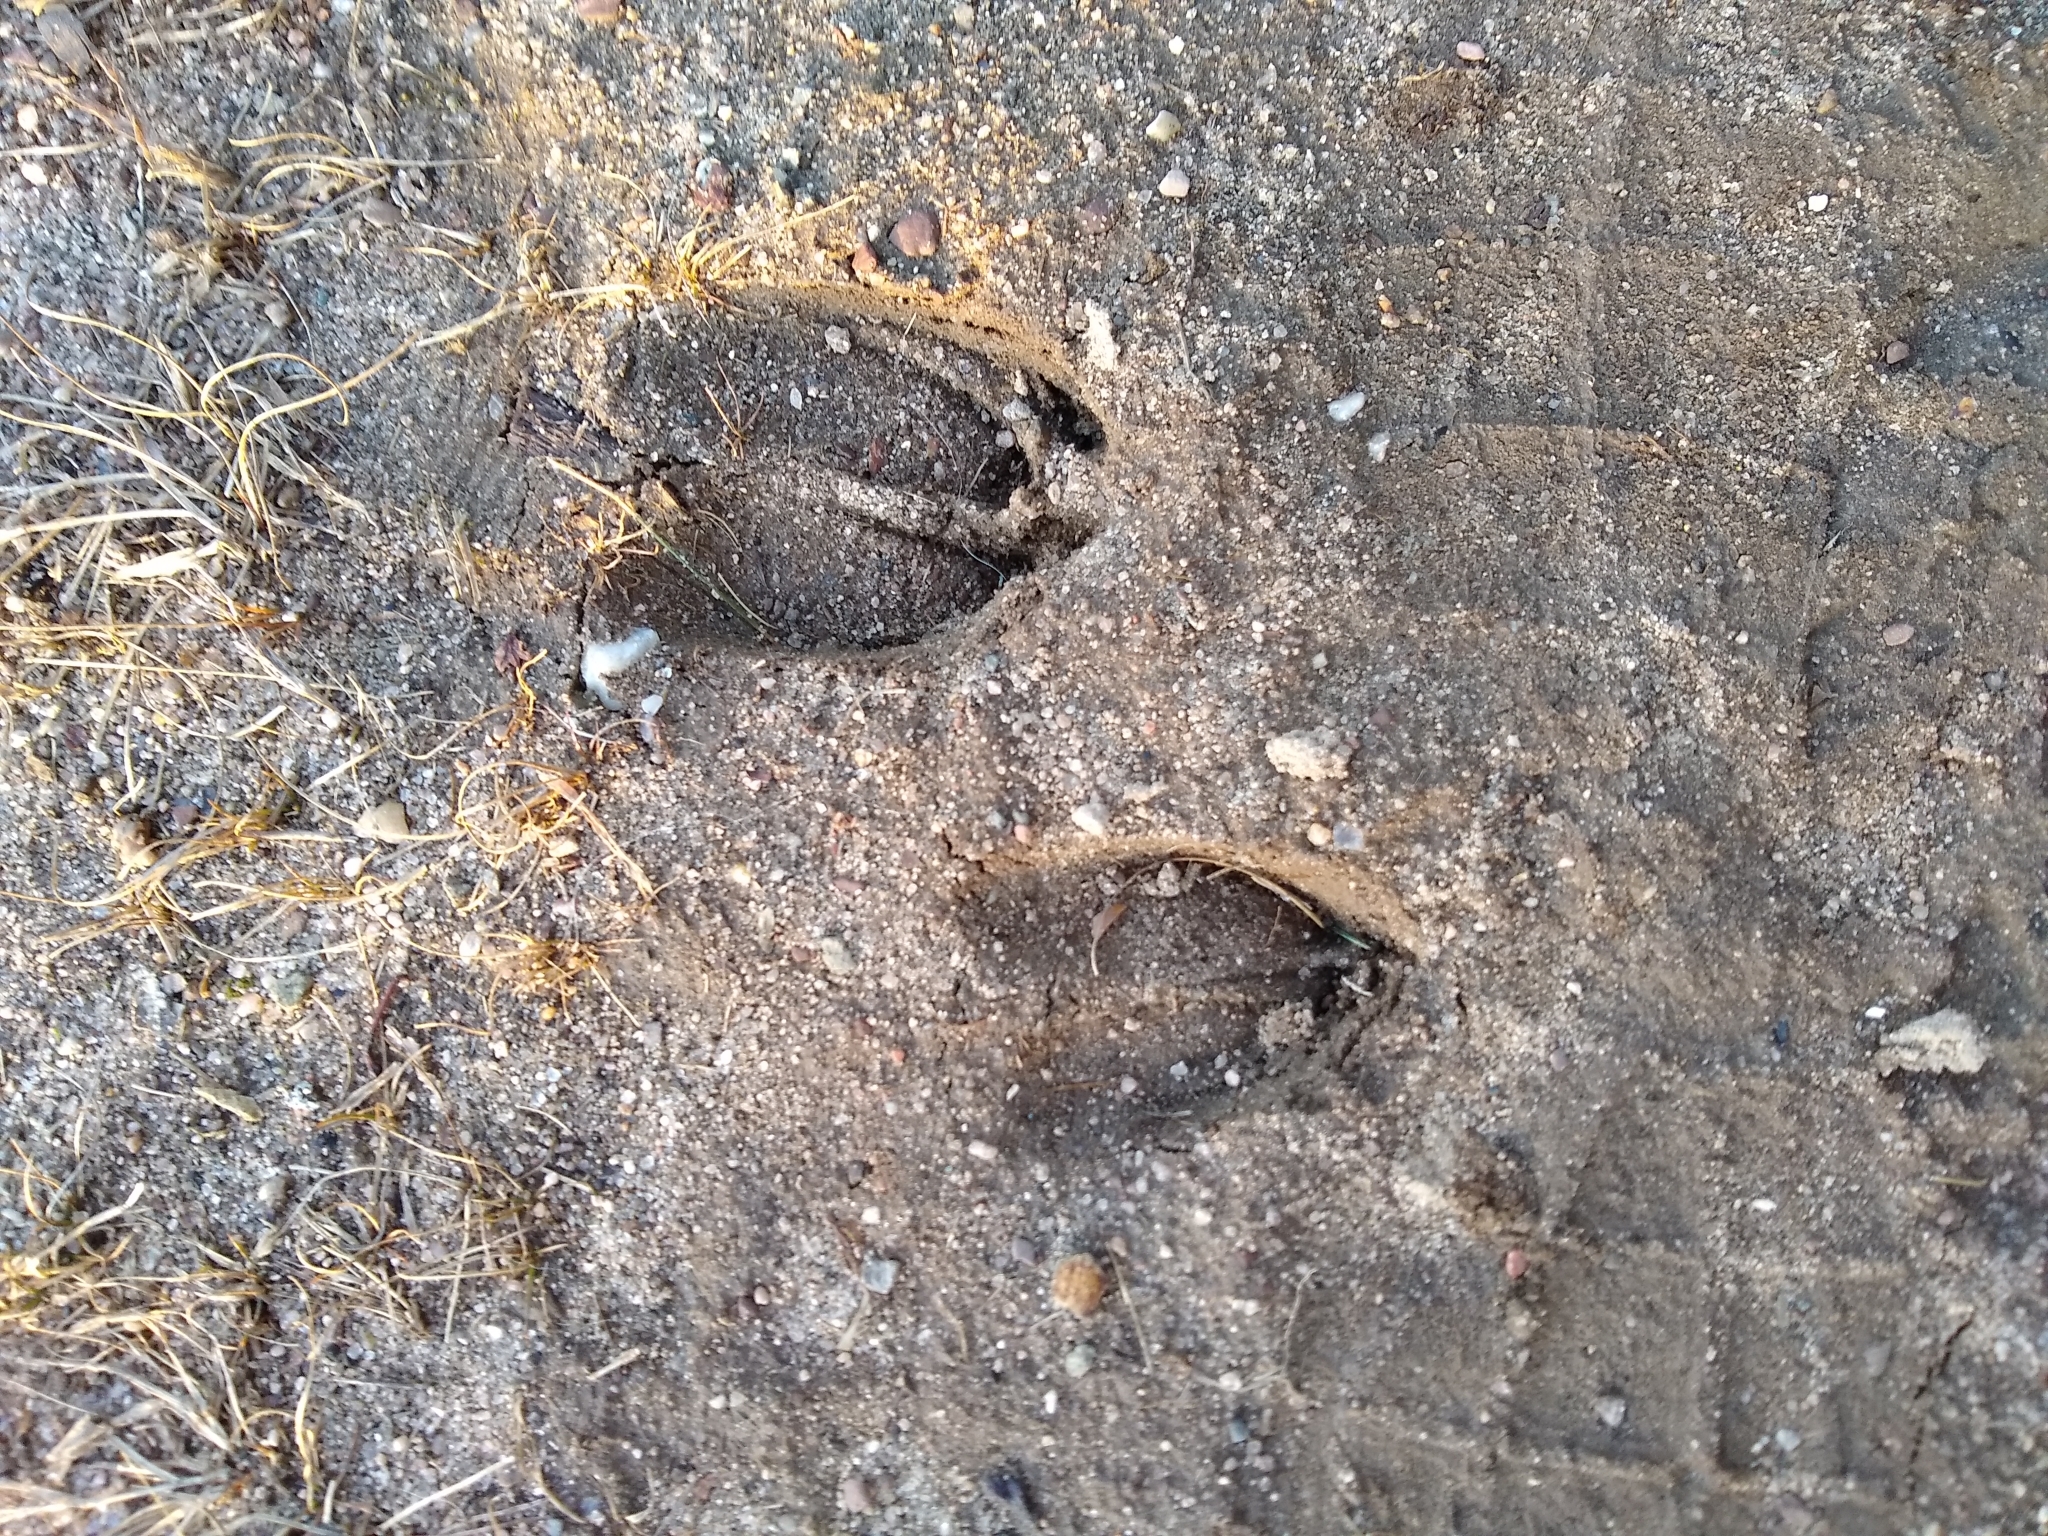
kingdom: Animalia
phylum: Chordata
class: Mammalia
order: Artiodactyla
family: Cervidae
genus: Odocoileus
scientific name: Odocoileus virginianus
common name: White-tailed deer
